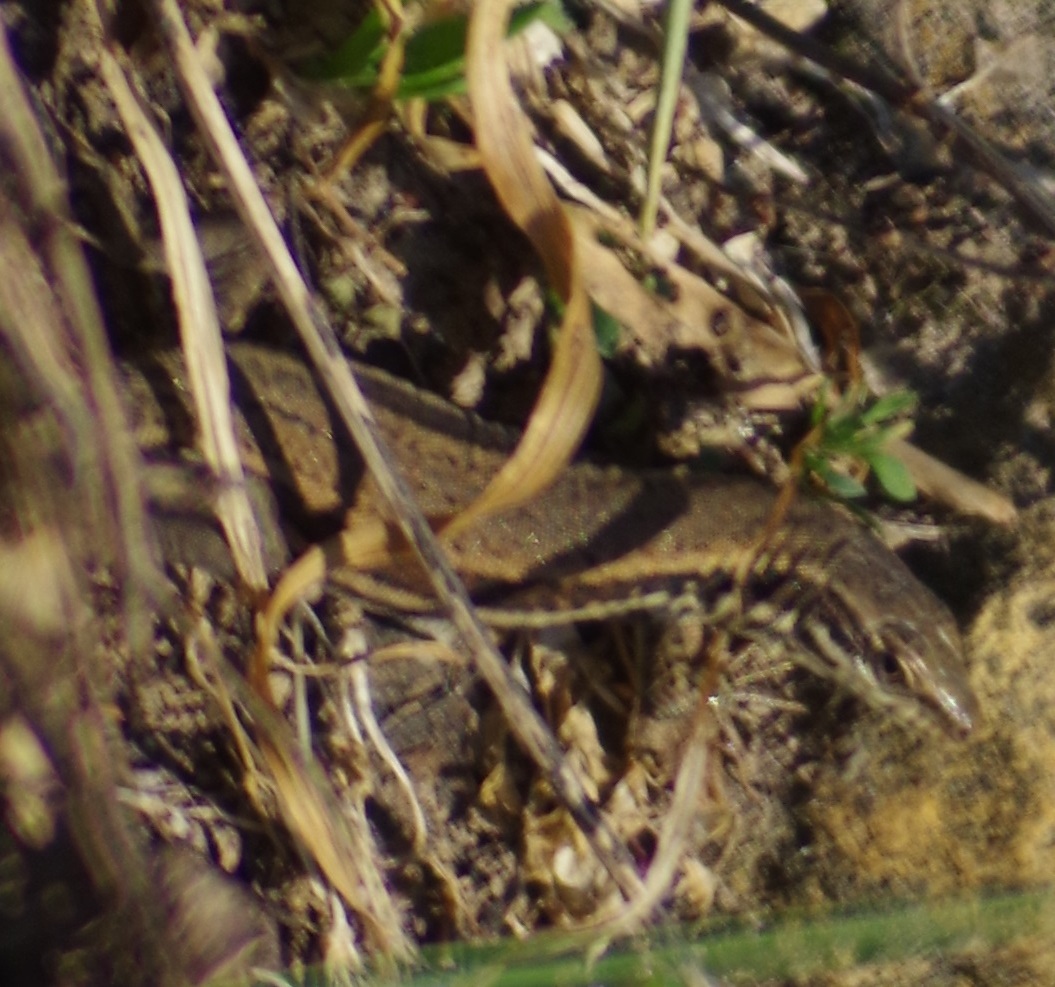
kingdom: Animalia
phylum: Chordata
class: Squamata
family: Lacertidae
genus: Podarcis
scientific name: Podarcis muralis
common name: Common wall lizard
